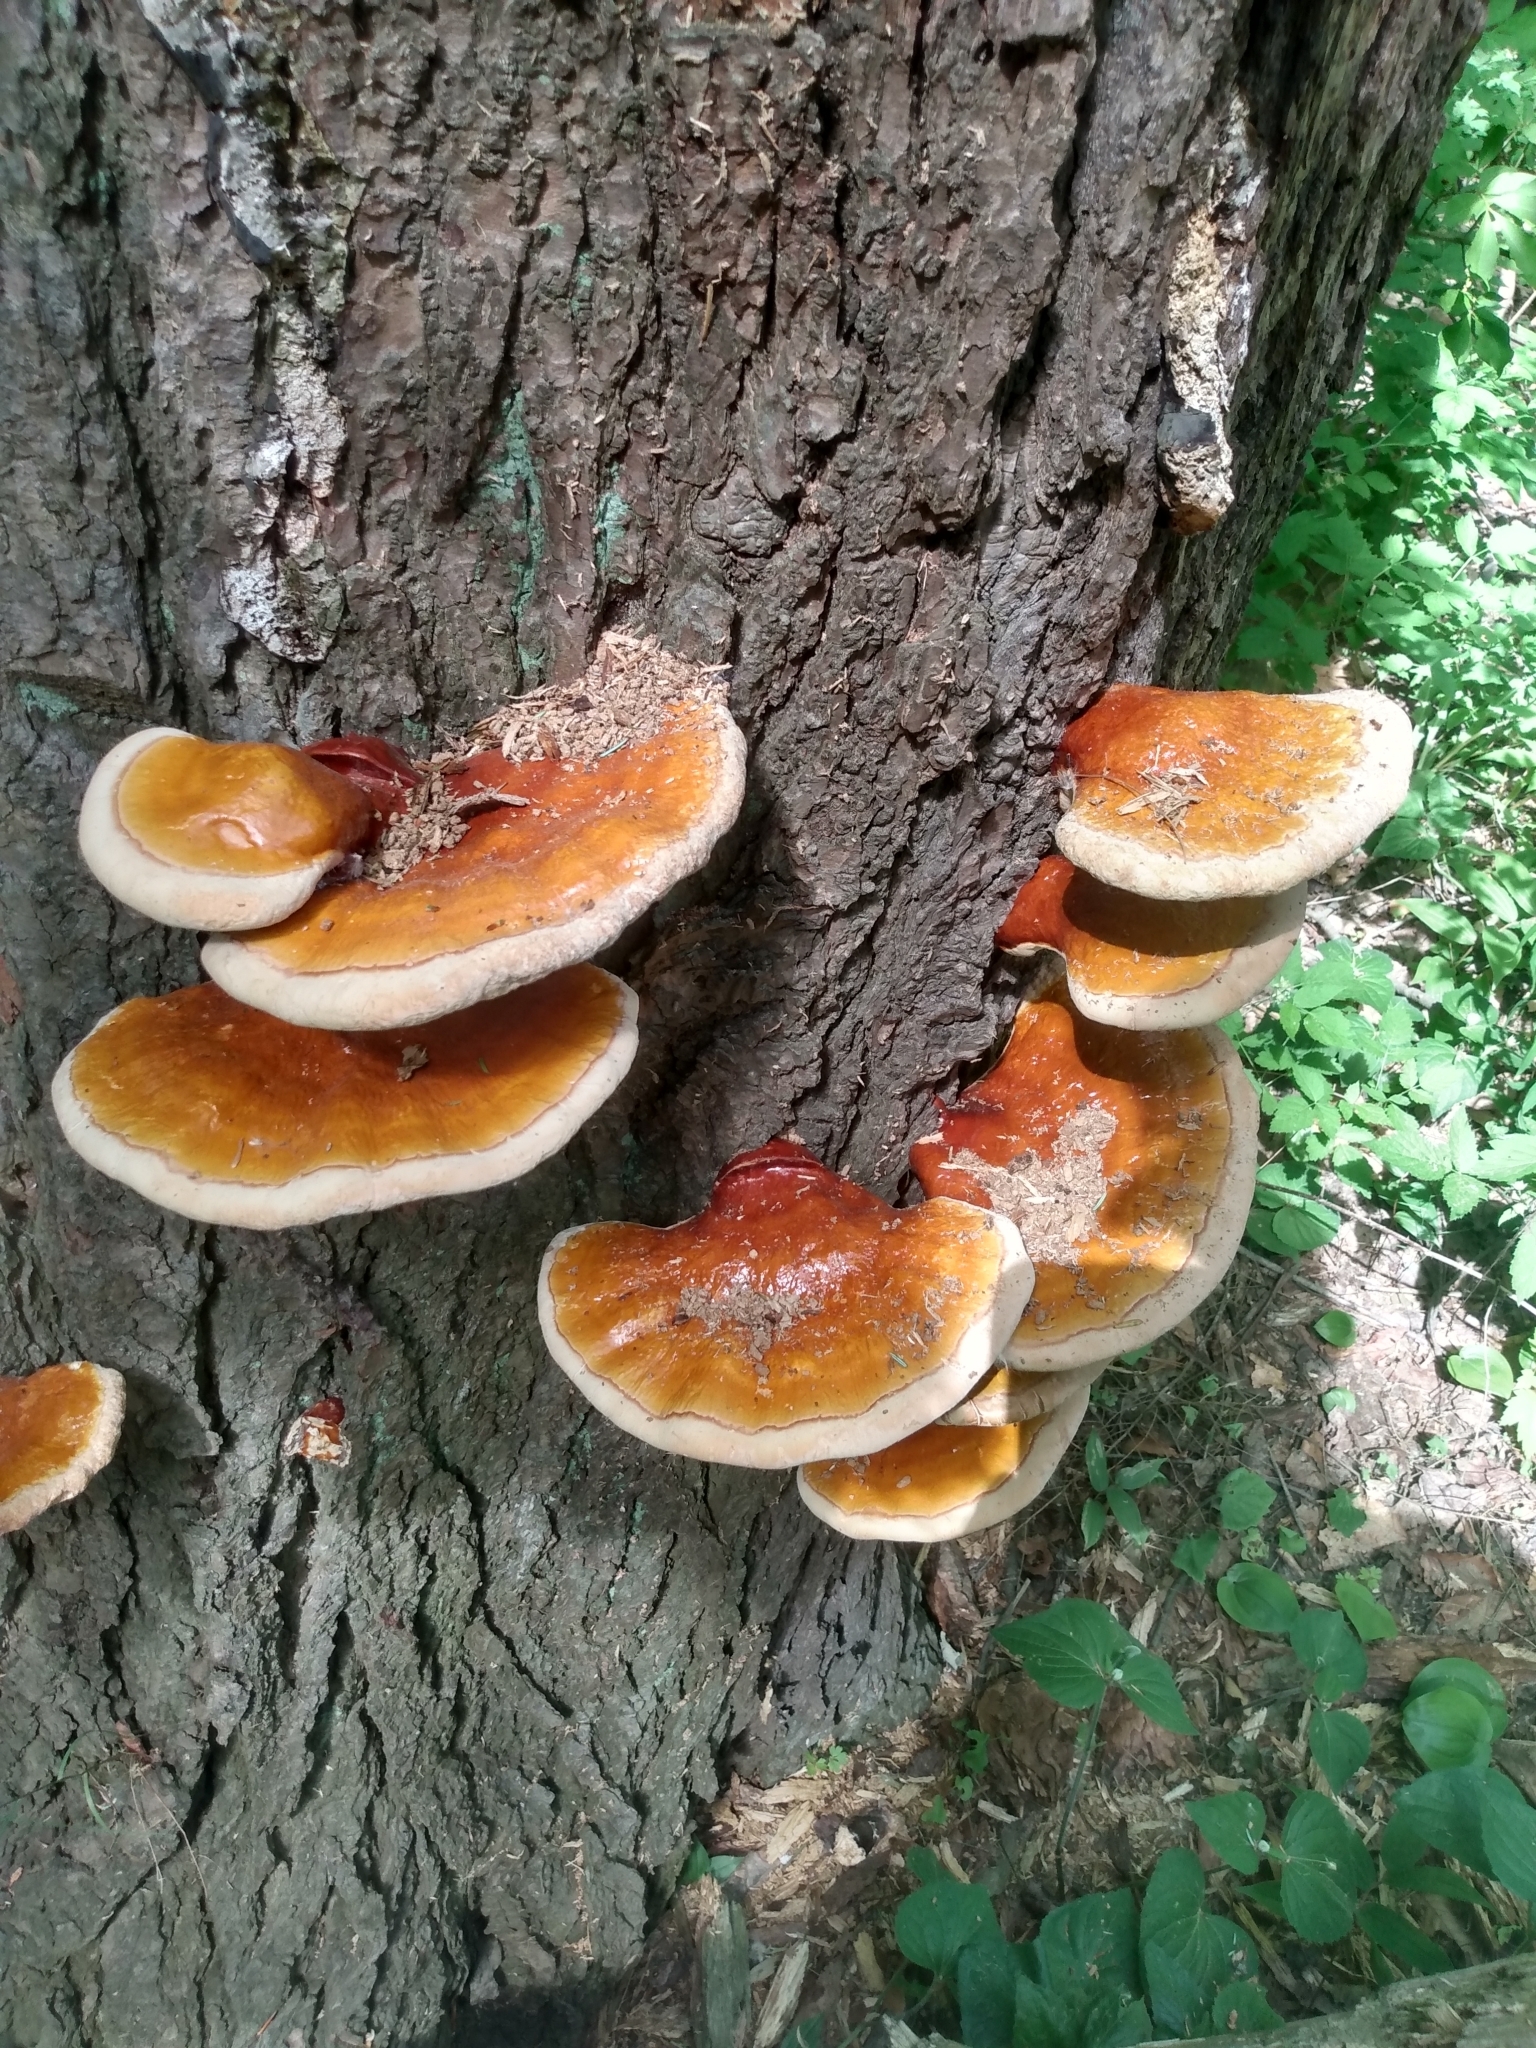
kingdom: Fungi
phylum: Basidiomycota
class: Agaricomycetes
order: Polyporales
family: Polyporaceae
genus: Ganoderma
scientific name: Ganoderma tsugae
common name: Hemlock varnish shelf
